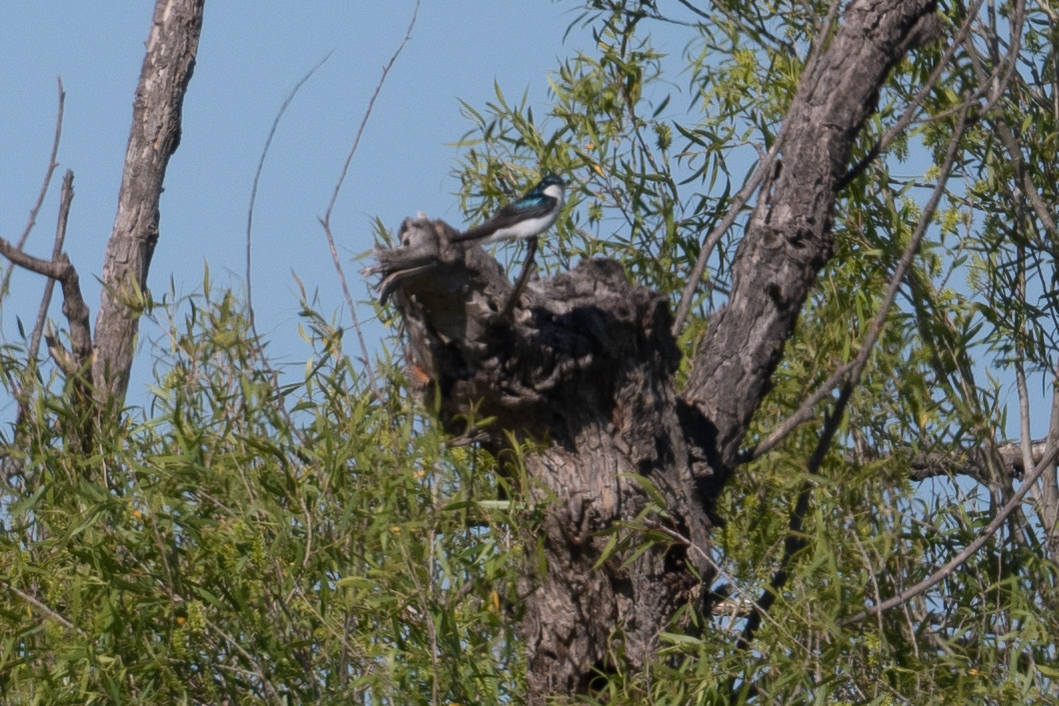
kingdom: Animalia
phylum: Chordata
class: Aves
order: Passeriformes
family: Hirundinidae
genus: Tachycineta
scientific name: Tachycineta bicolor
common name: Tree swallow
